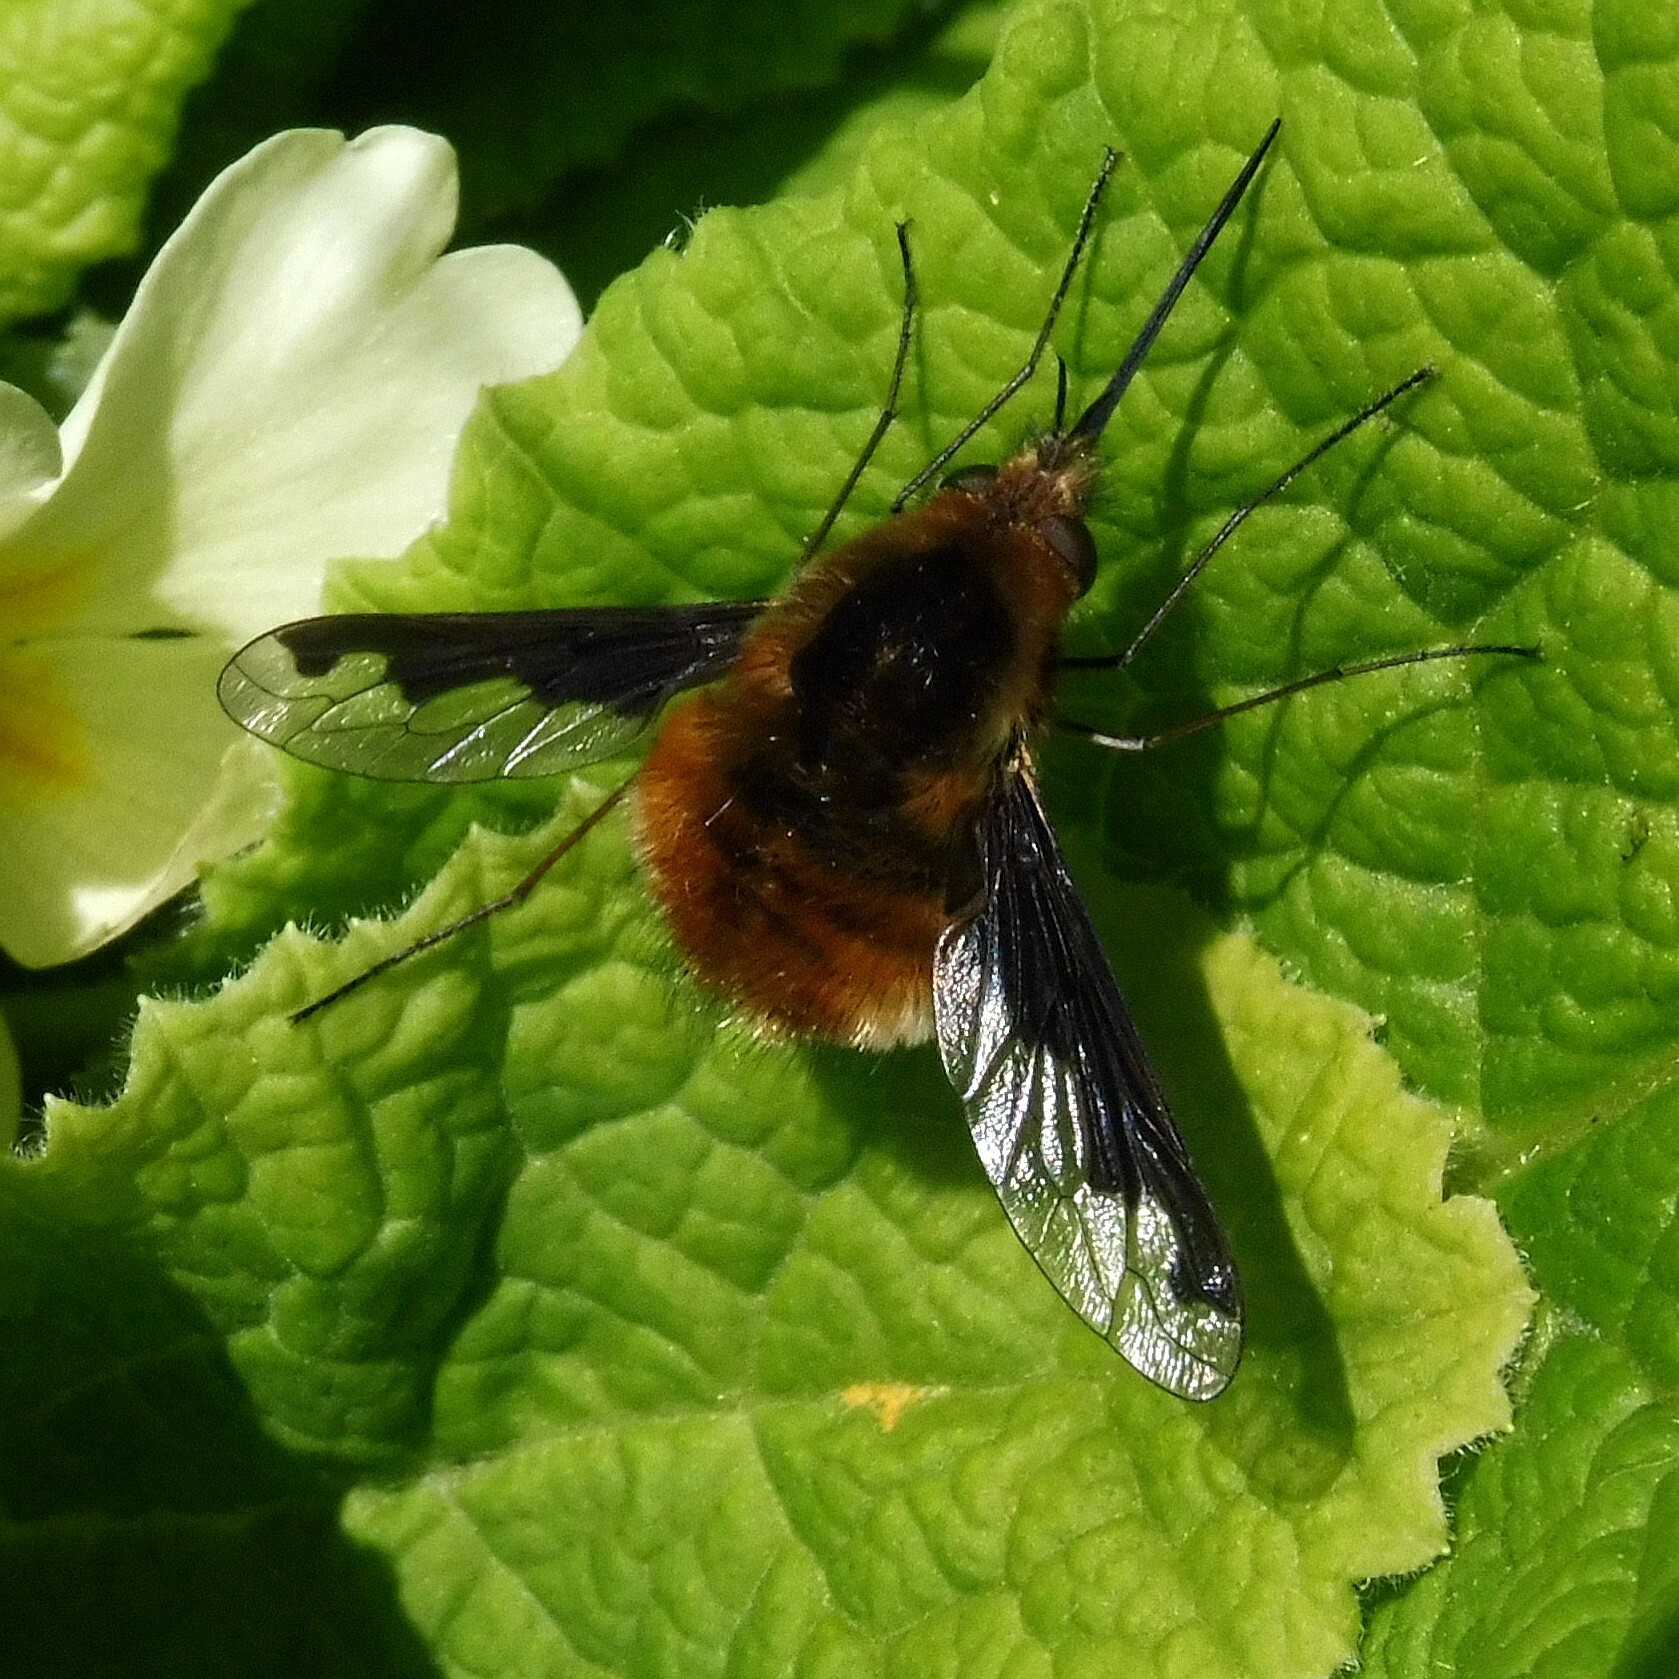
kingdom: Animalia
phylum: Arthropoda
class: Insecta
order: Diptera
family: Bombyliidae
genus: Bombylius
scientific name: Bombylius major
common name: Bee fly
